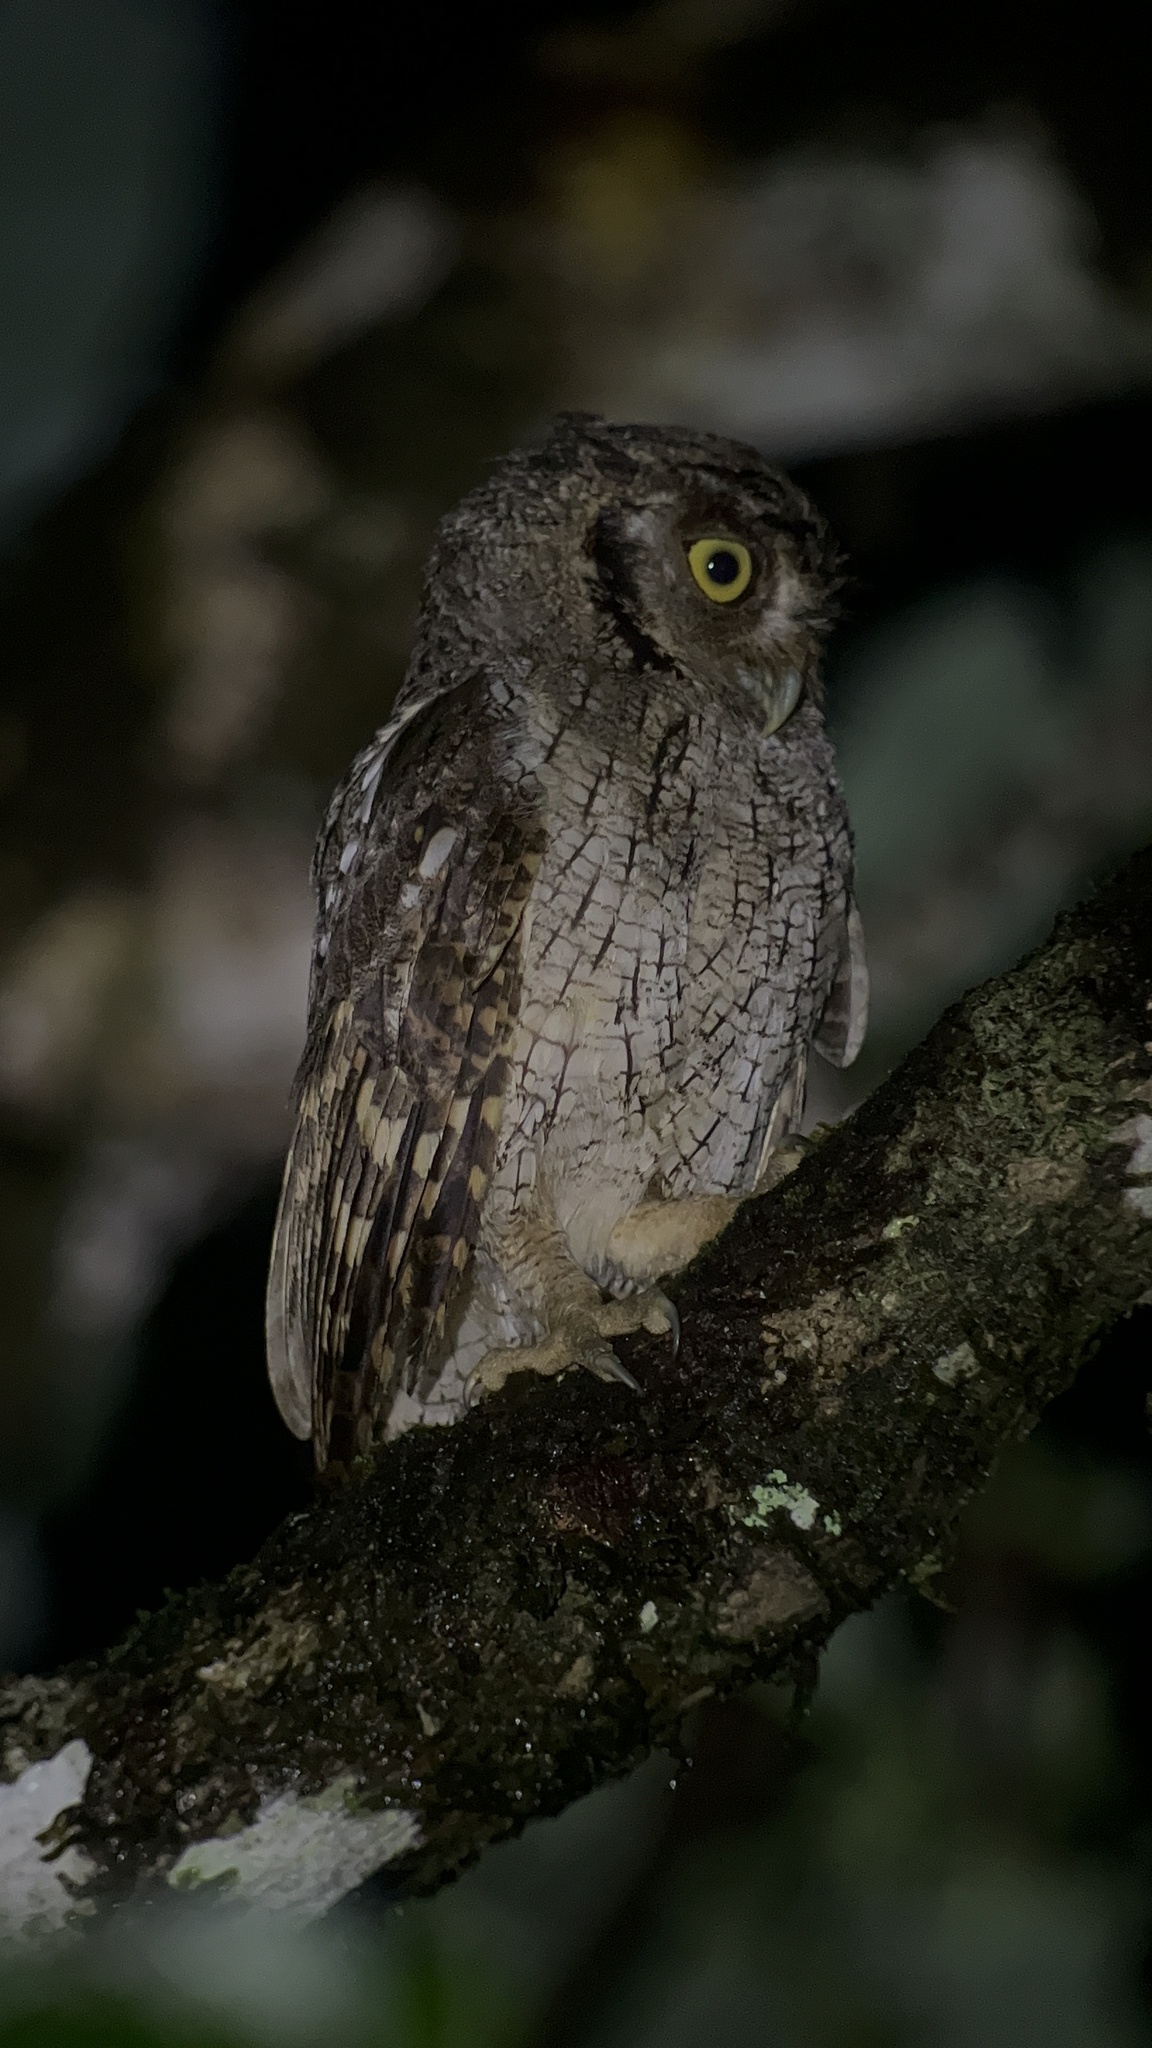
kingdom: Animalia
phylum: Chordata
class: Aves
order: Strigiformes
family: Strigidae
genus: Megascops
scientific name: Megascops choliba
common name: Tropical screech-owl
